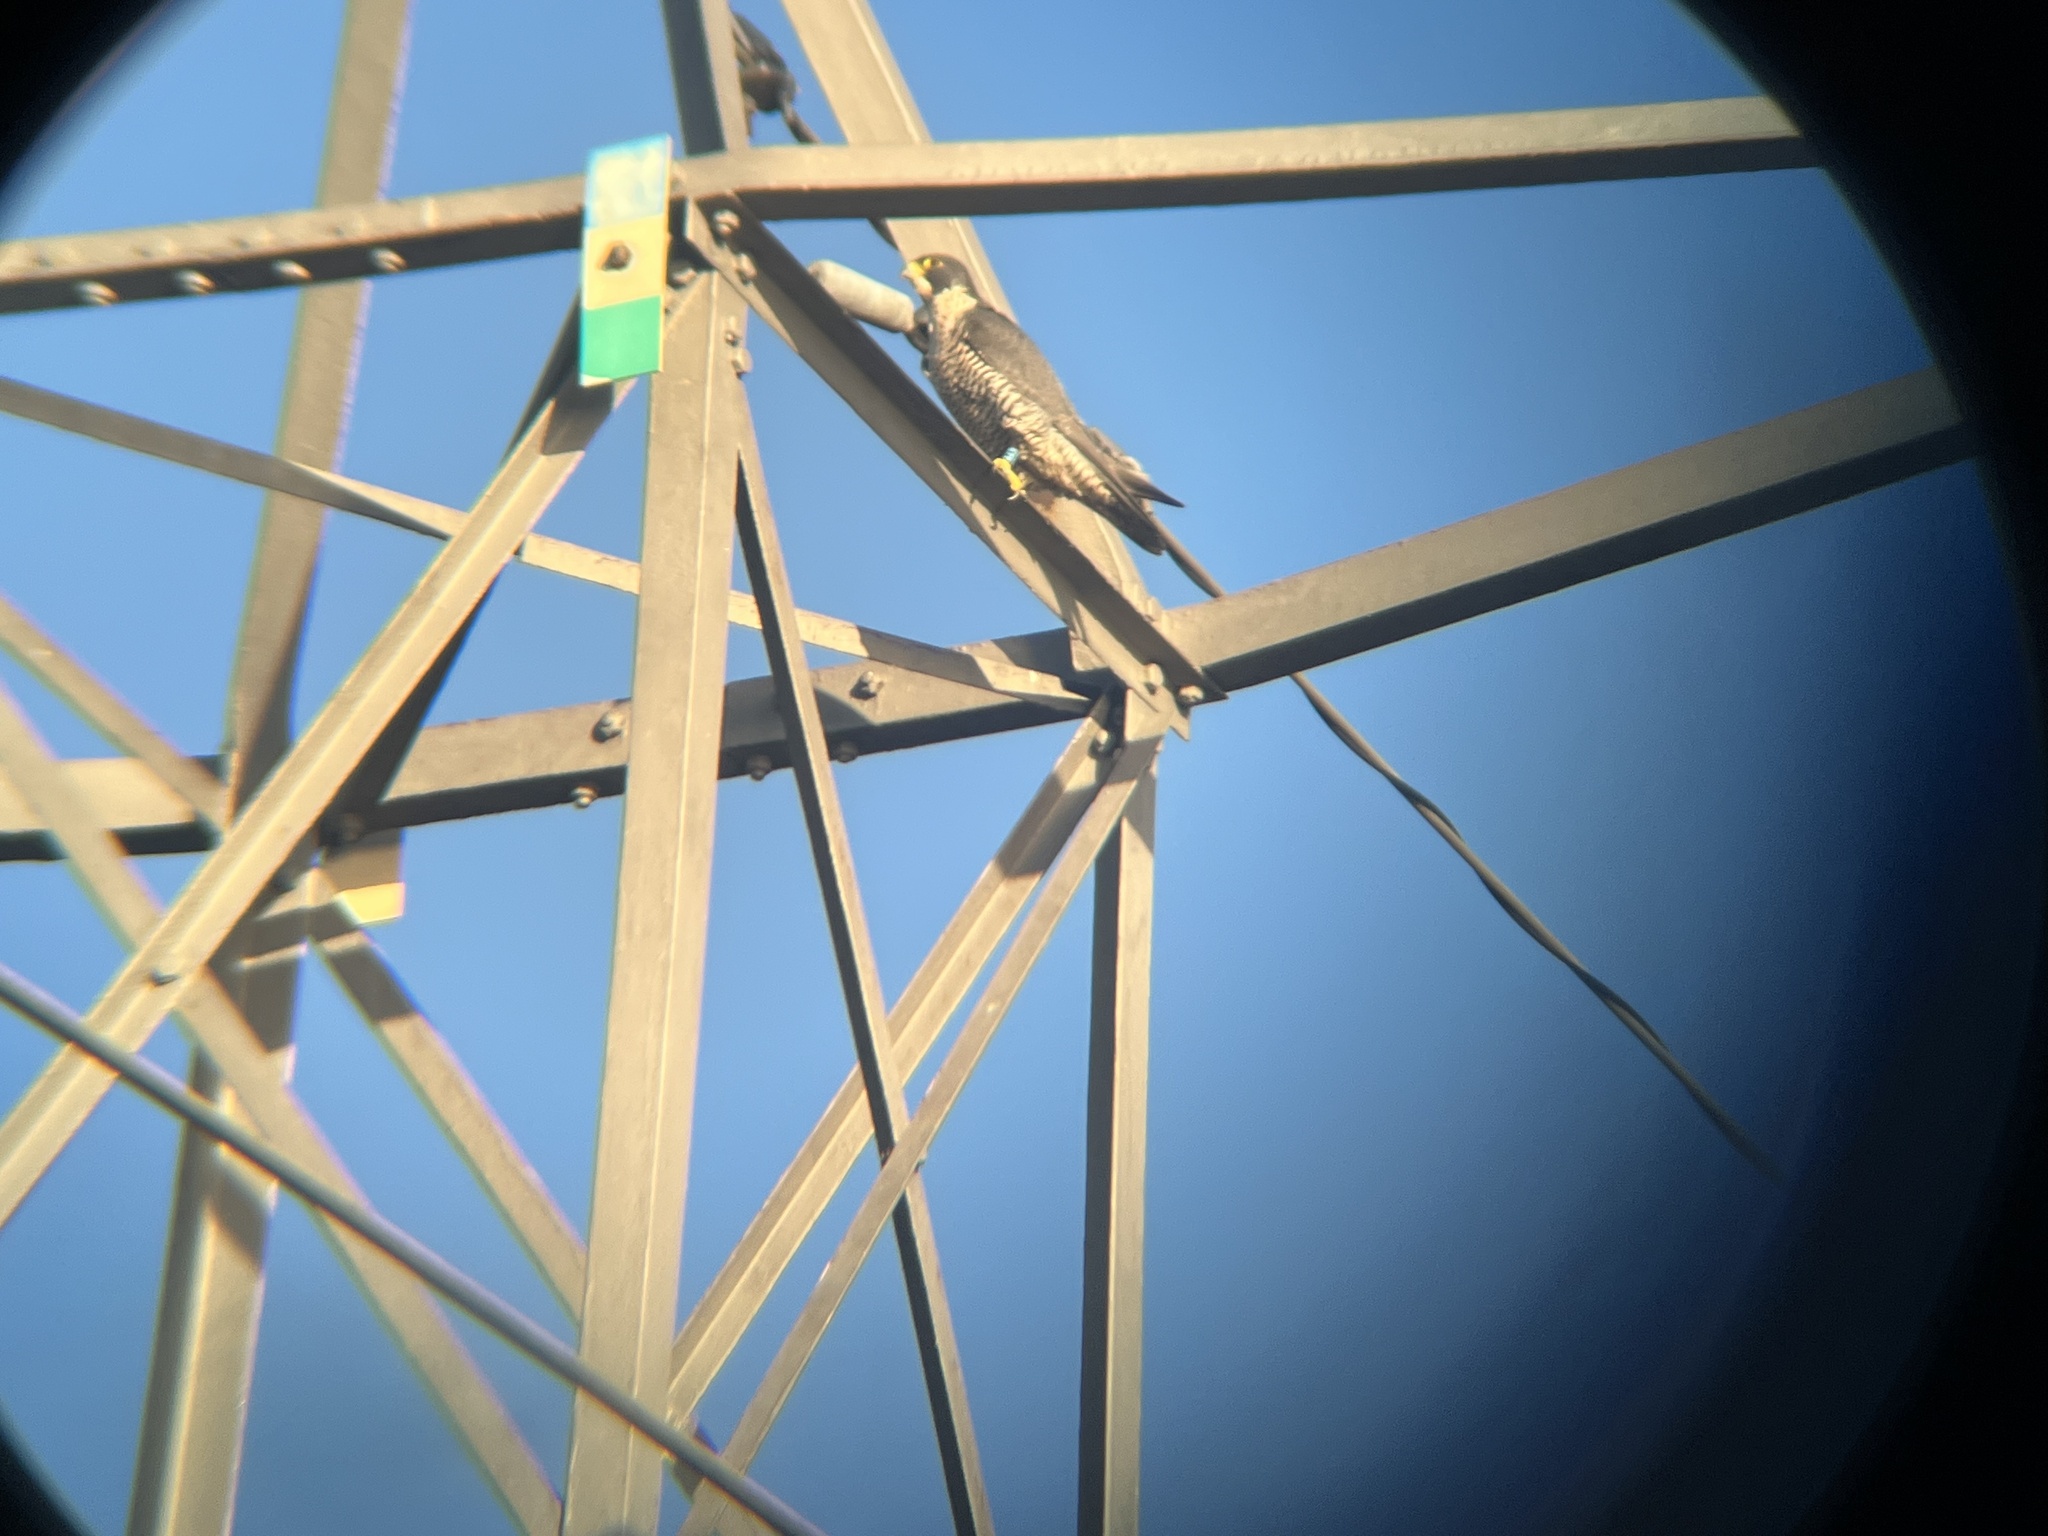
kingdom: Animalia
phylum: Chordata
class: Aves
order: Falconiformes
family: Falconidae
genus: Falco
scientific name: Falco peregrinus
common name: Peregrine falcon
